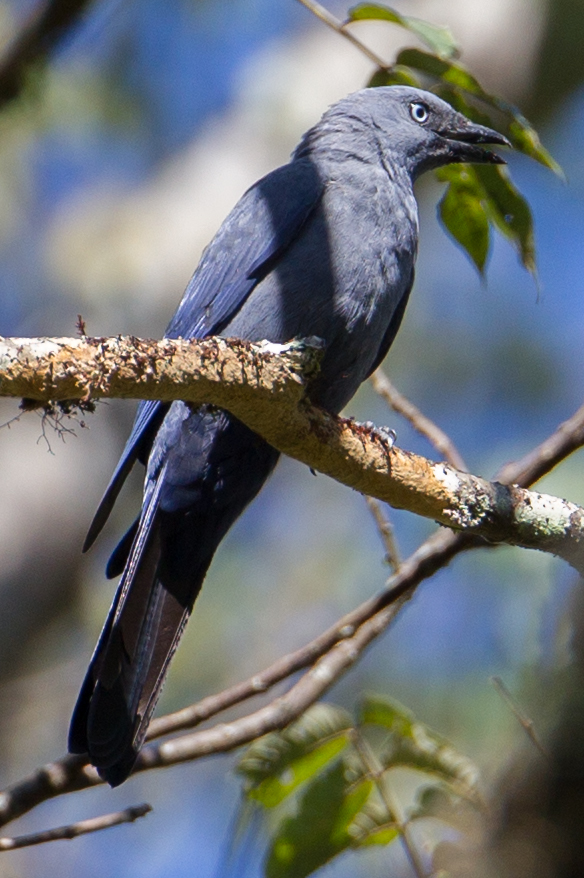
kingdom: Animalia
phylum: Chordata
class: Aves
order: Passeriformes
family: Campephagidae
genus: Coracina
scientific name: Coracina temminckii
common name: Cerulean cuckooshrike
